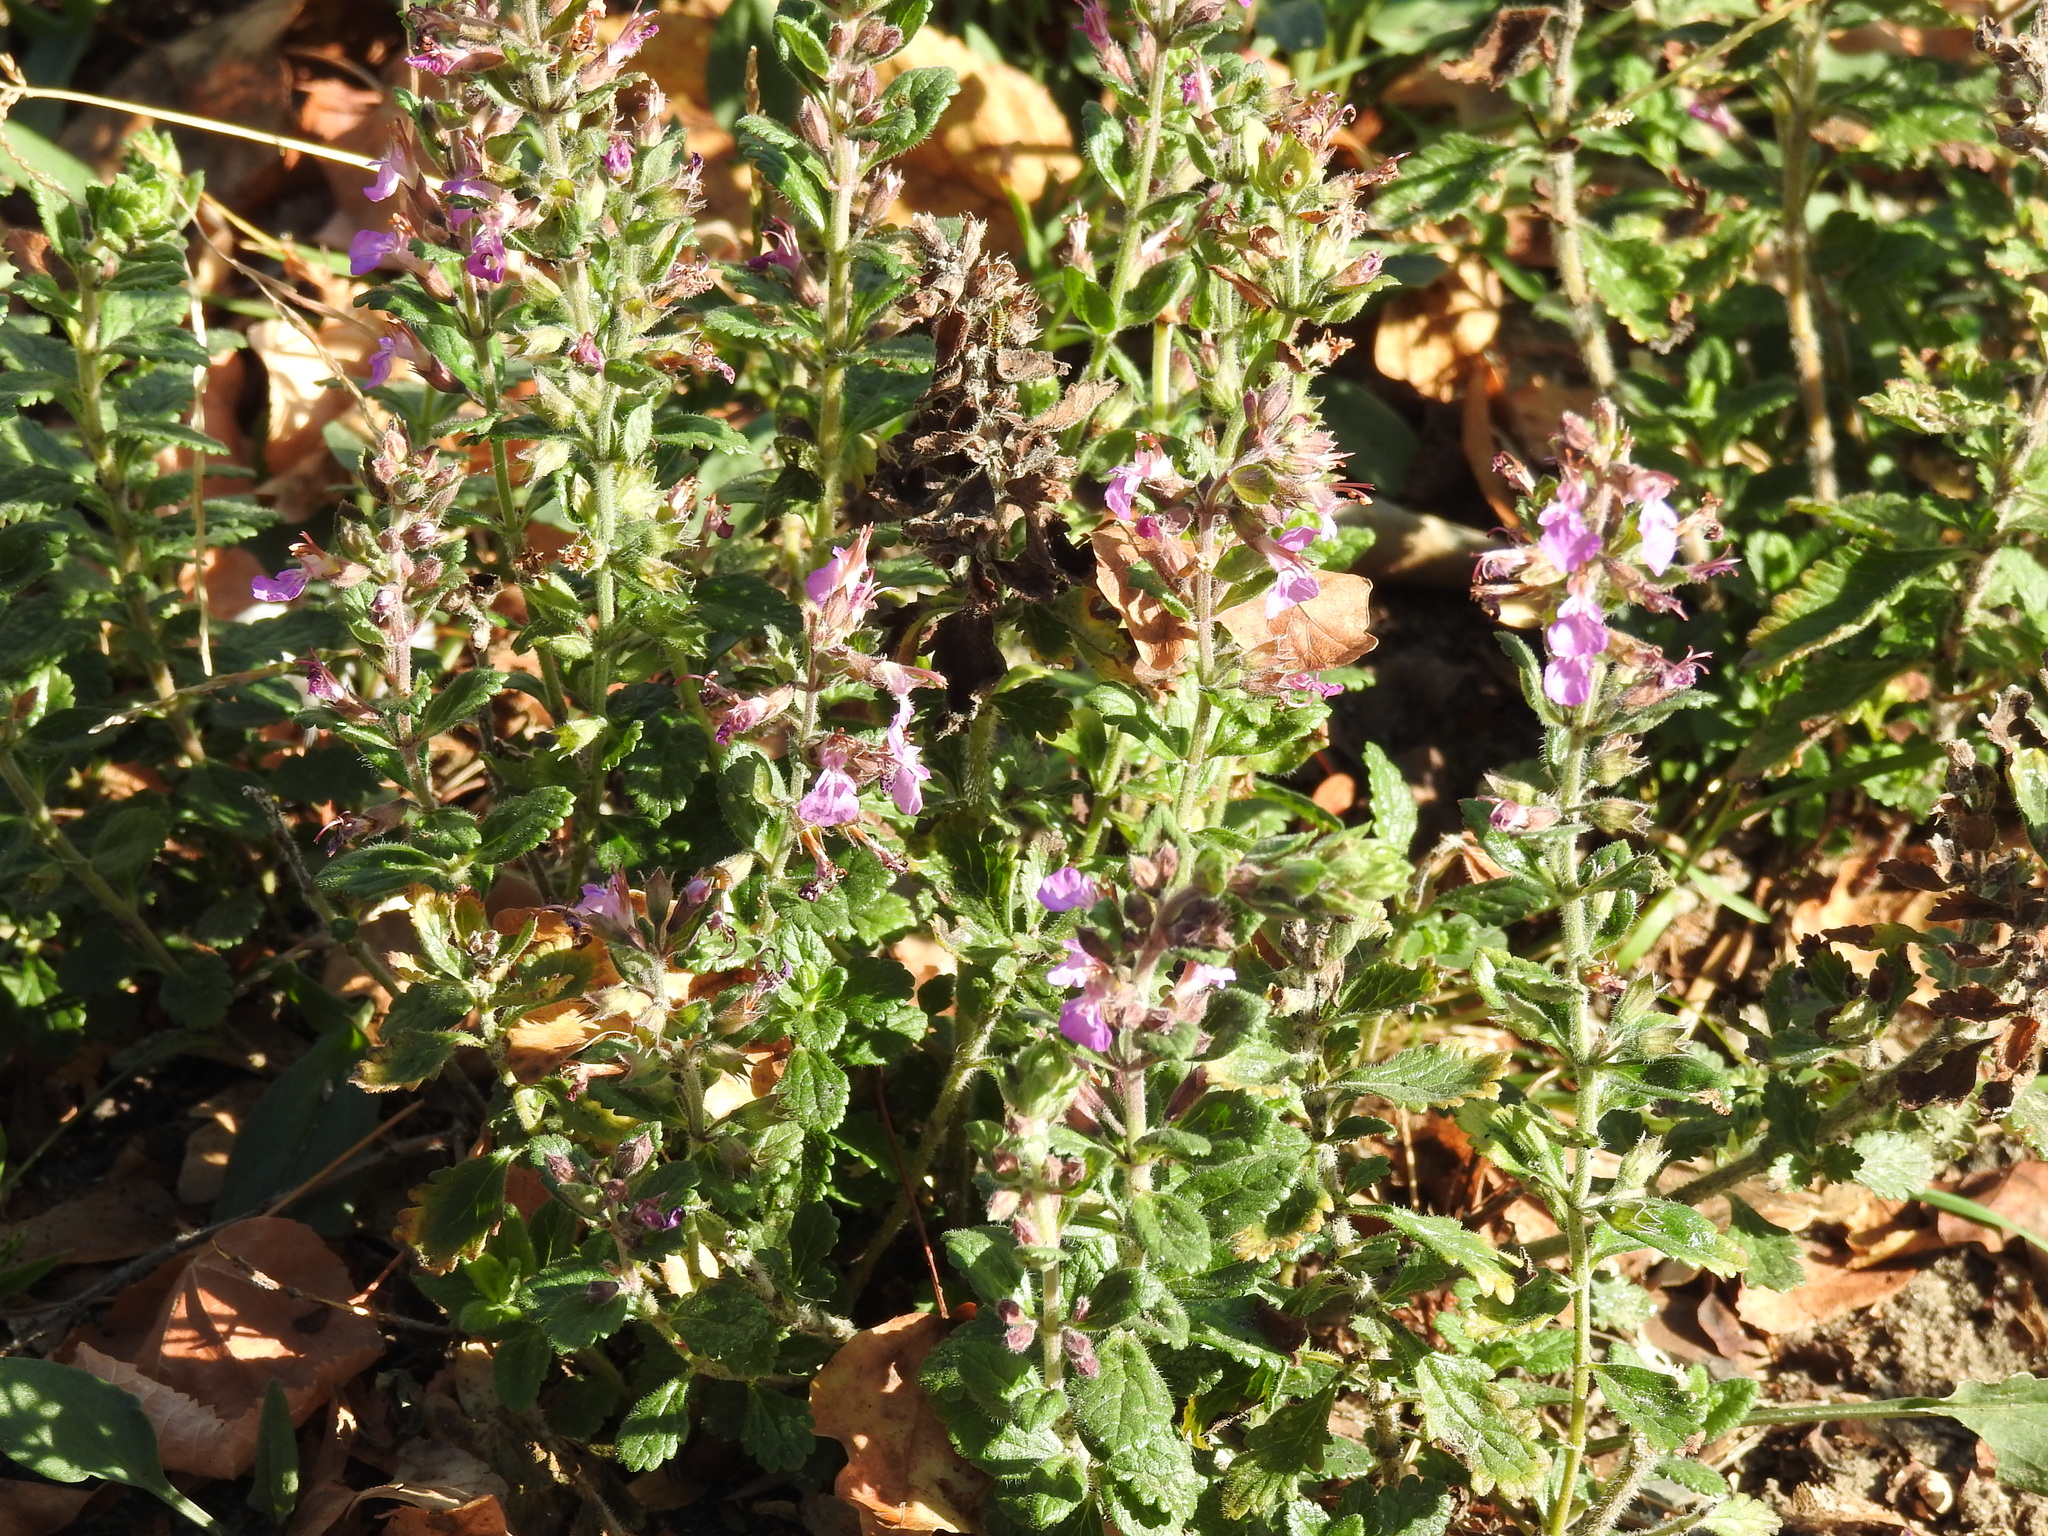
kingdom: Plantae
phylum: Tracheophyta
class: Magnoliopsida
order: Lamiales
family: Lamiaceae
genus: Teucrium
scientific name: Teucrium chamaedrys
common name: Wall germander
